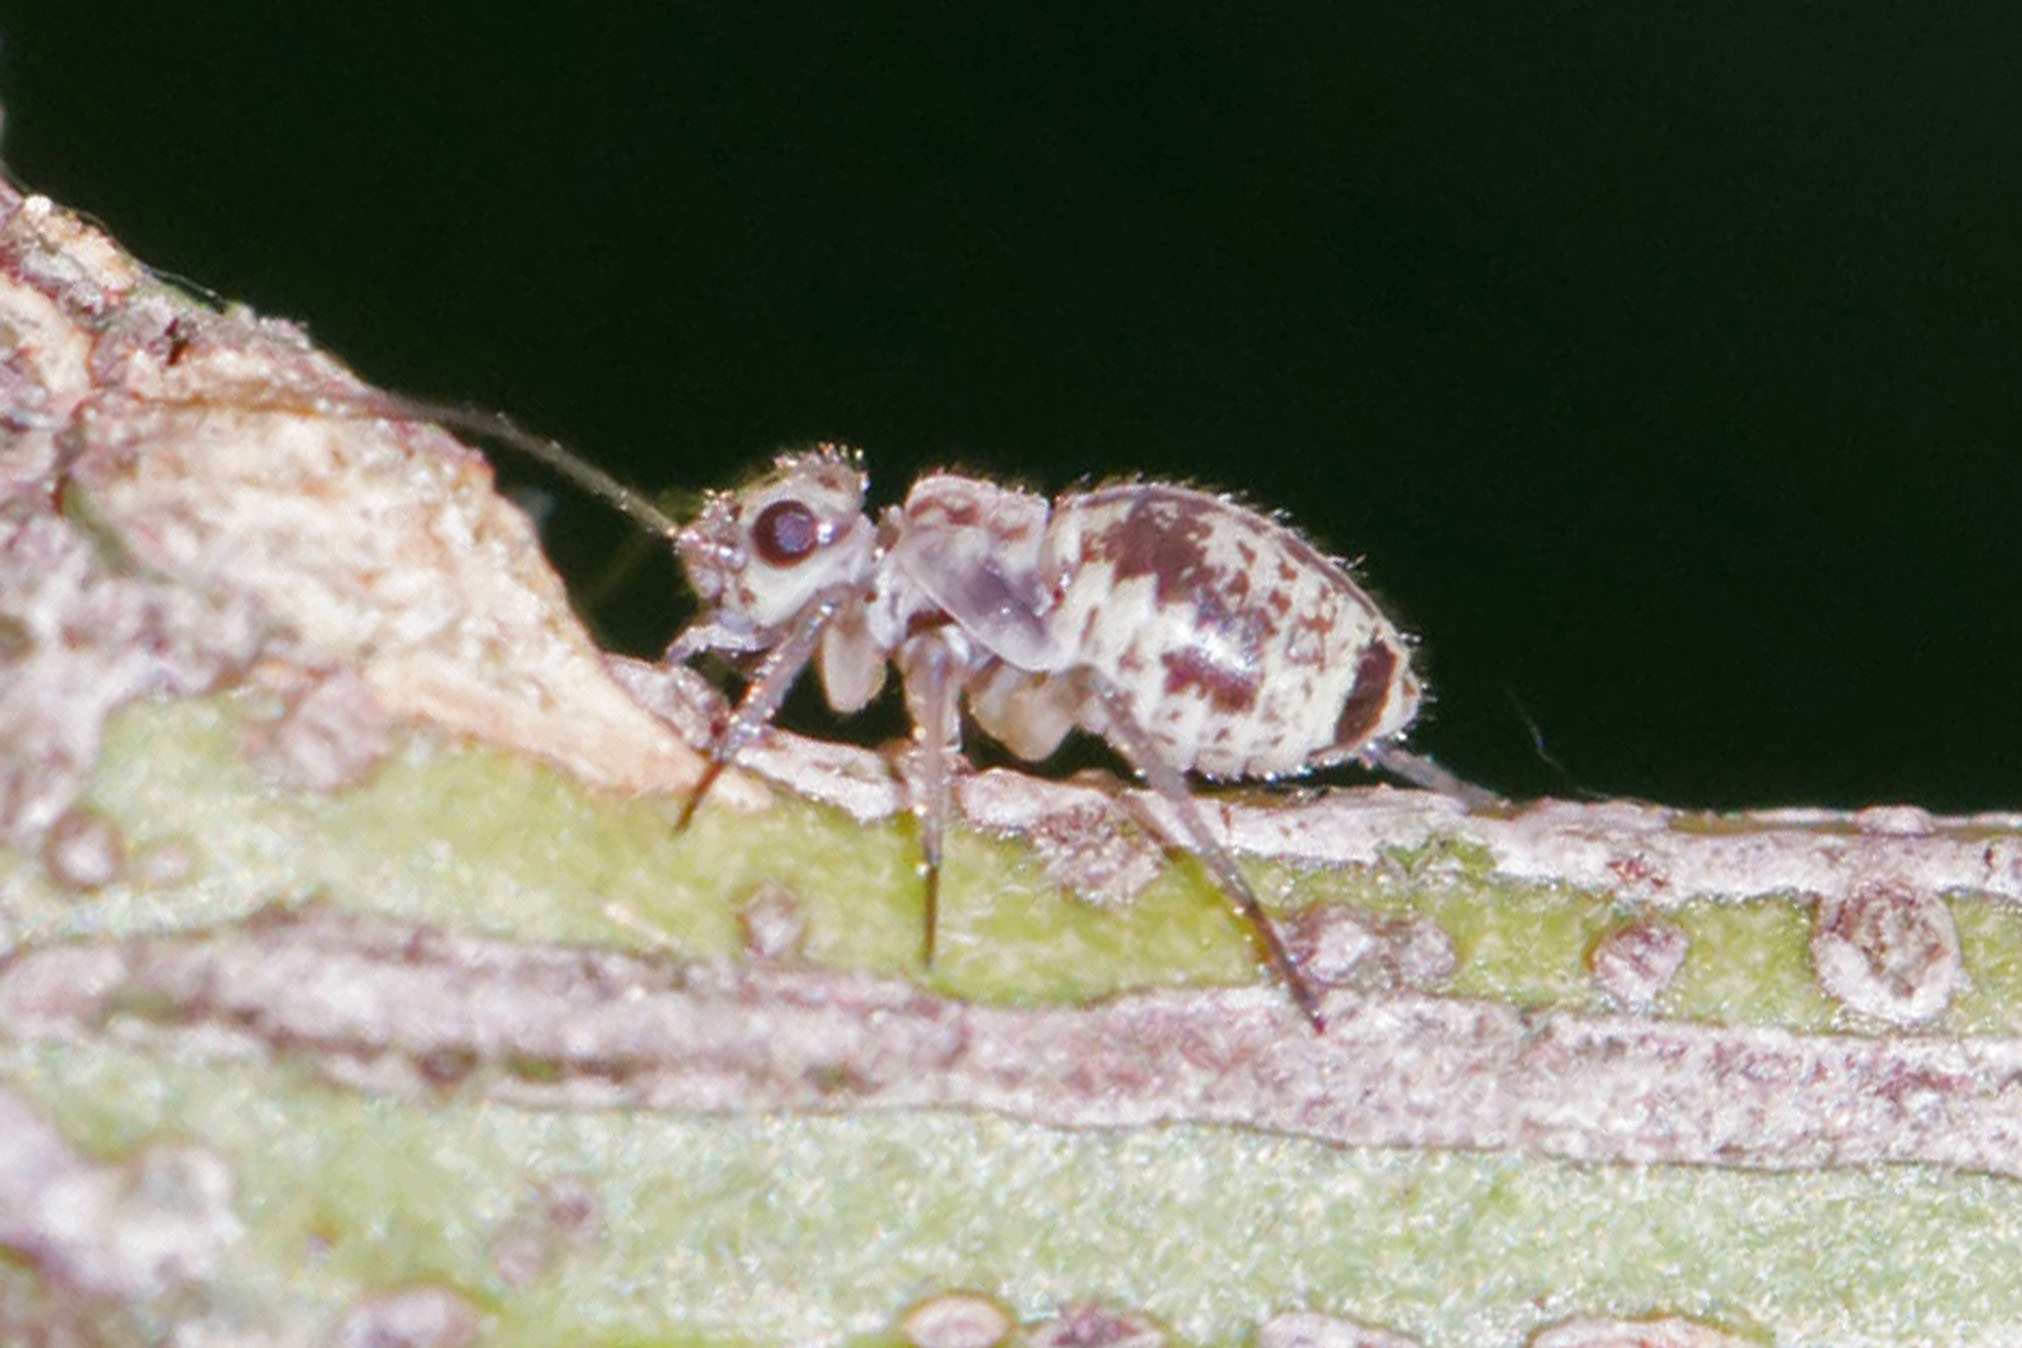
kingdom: Animalia
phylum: Arthropoda
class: Insecta
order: Psocodea
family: Psocidae
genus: Metylophorus
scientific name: Metylophorus novaescotiae
